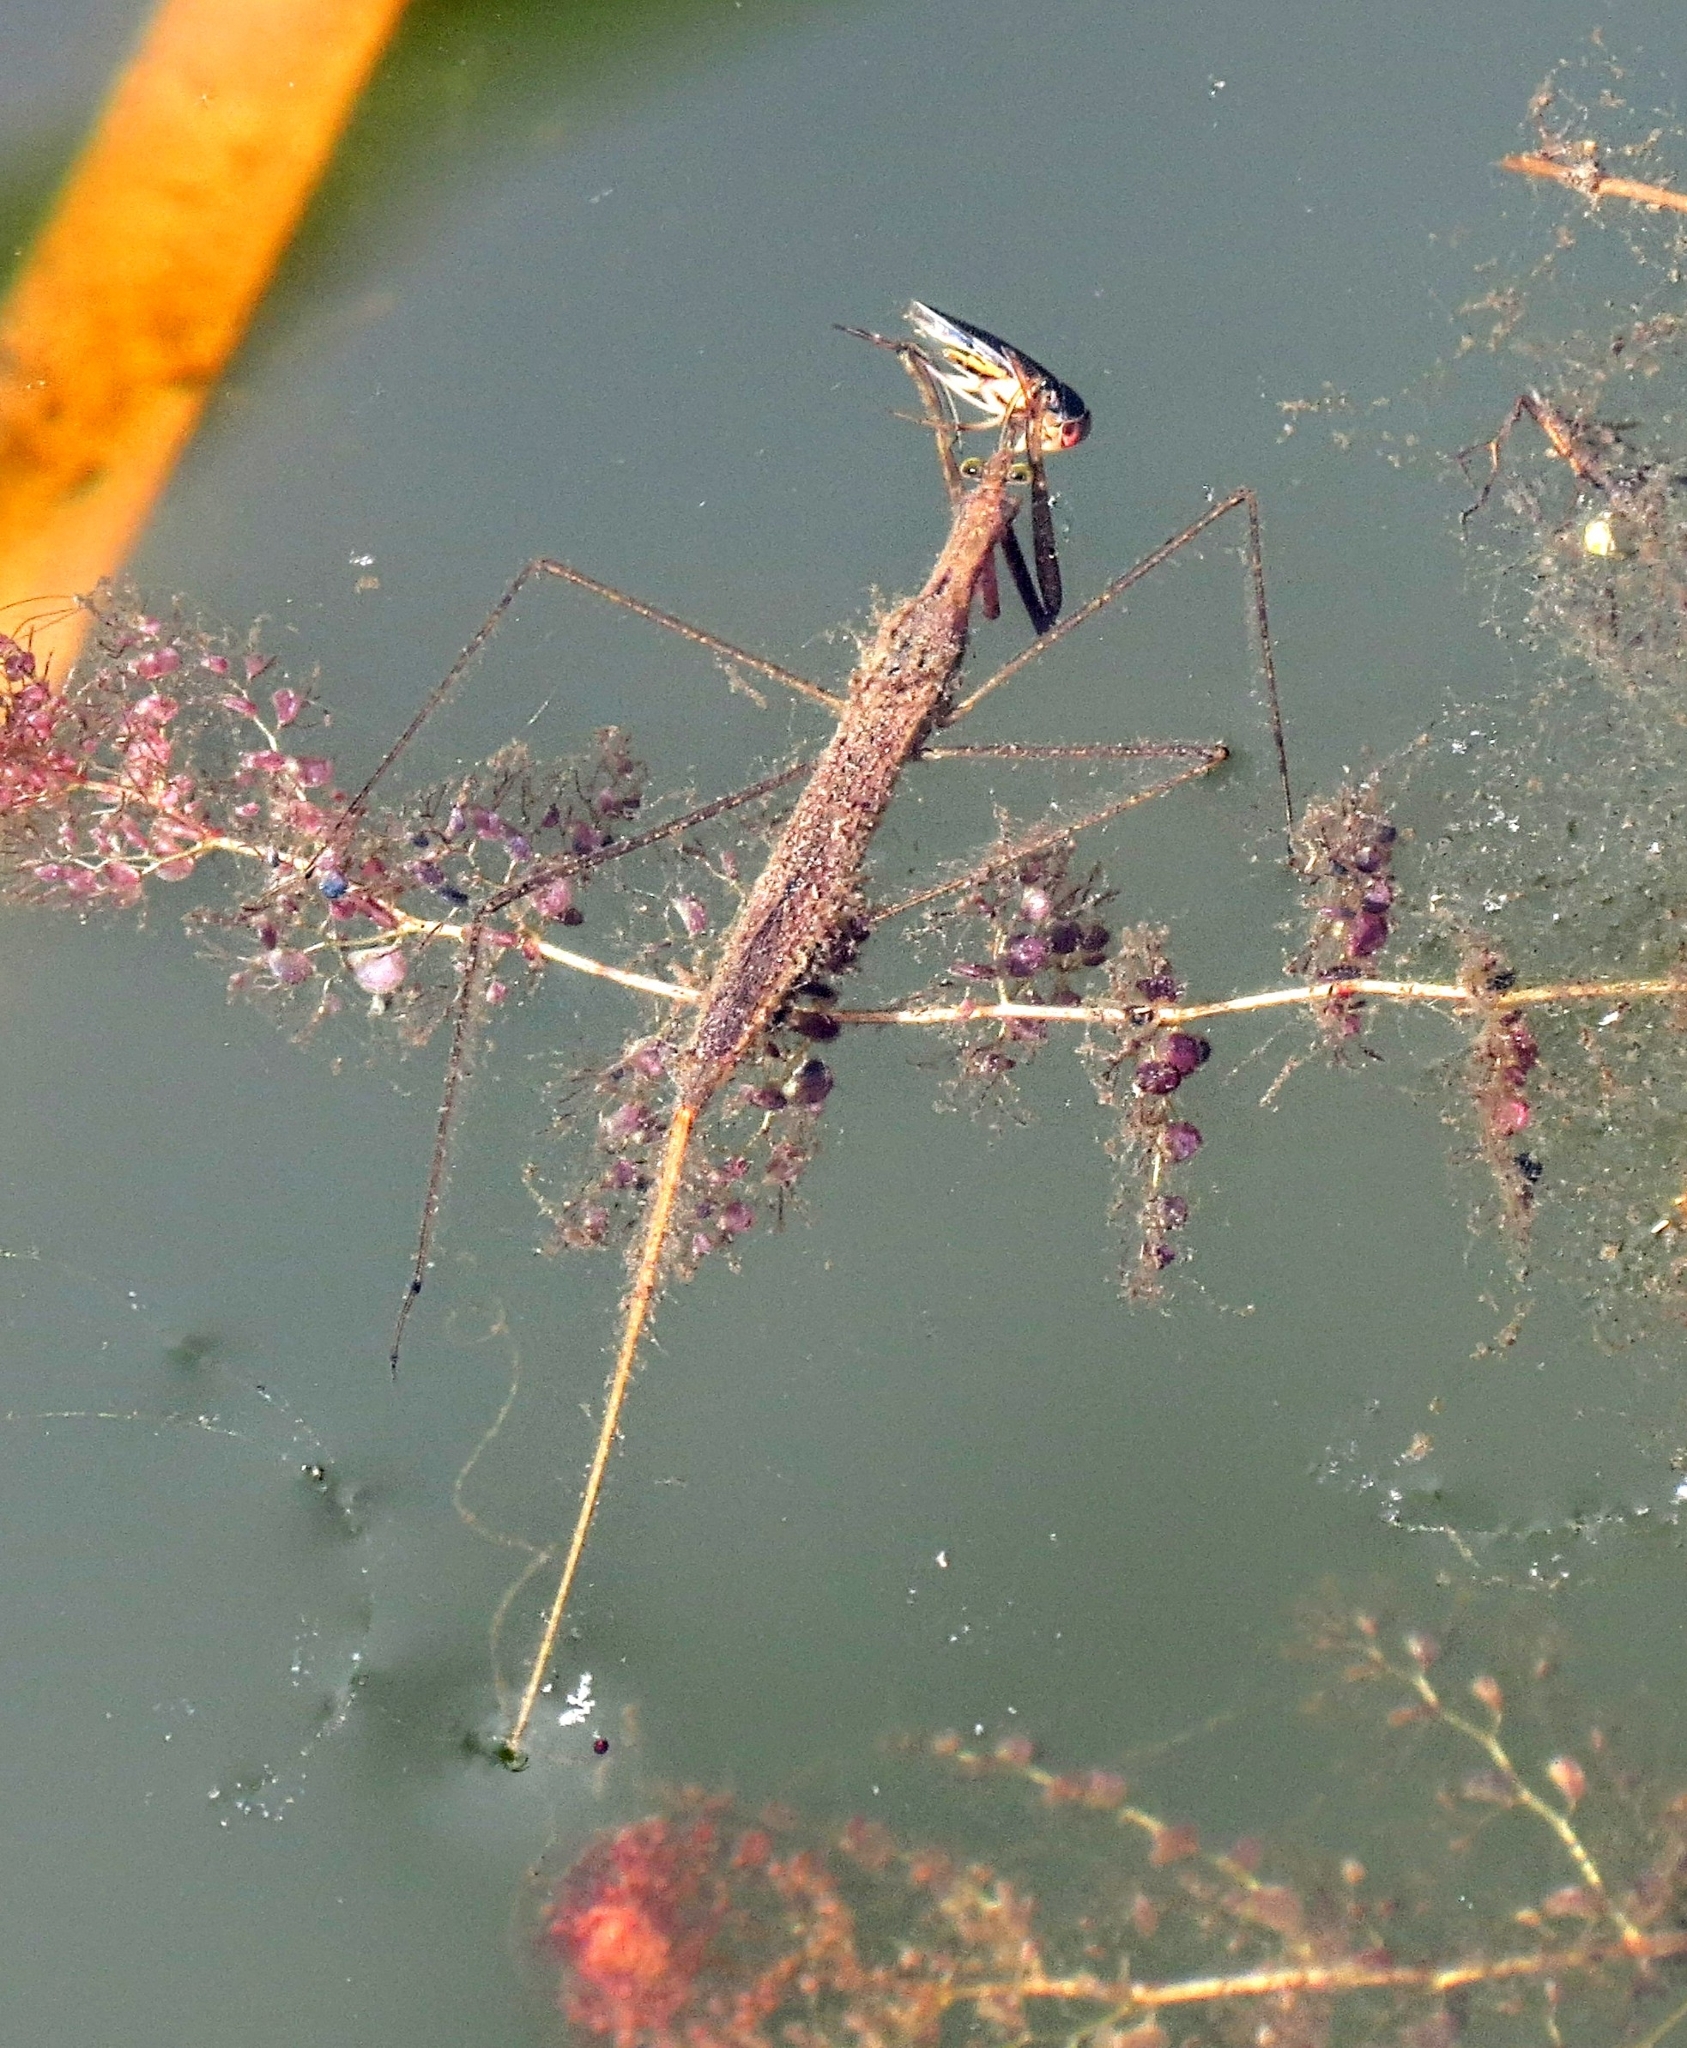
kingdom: Animalia
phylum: Arthropoda
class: Insecta
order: Hemiptera
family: Nepidae
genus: Ranatra
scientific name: Ranatra
